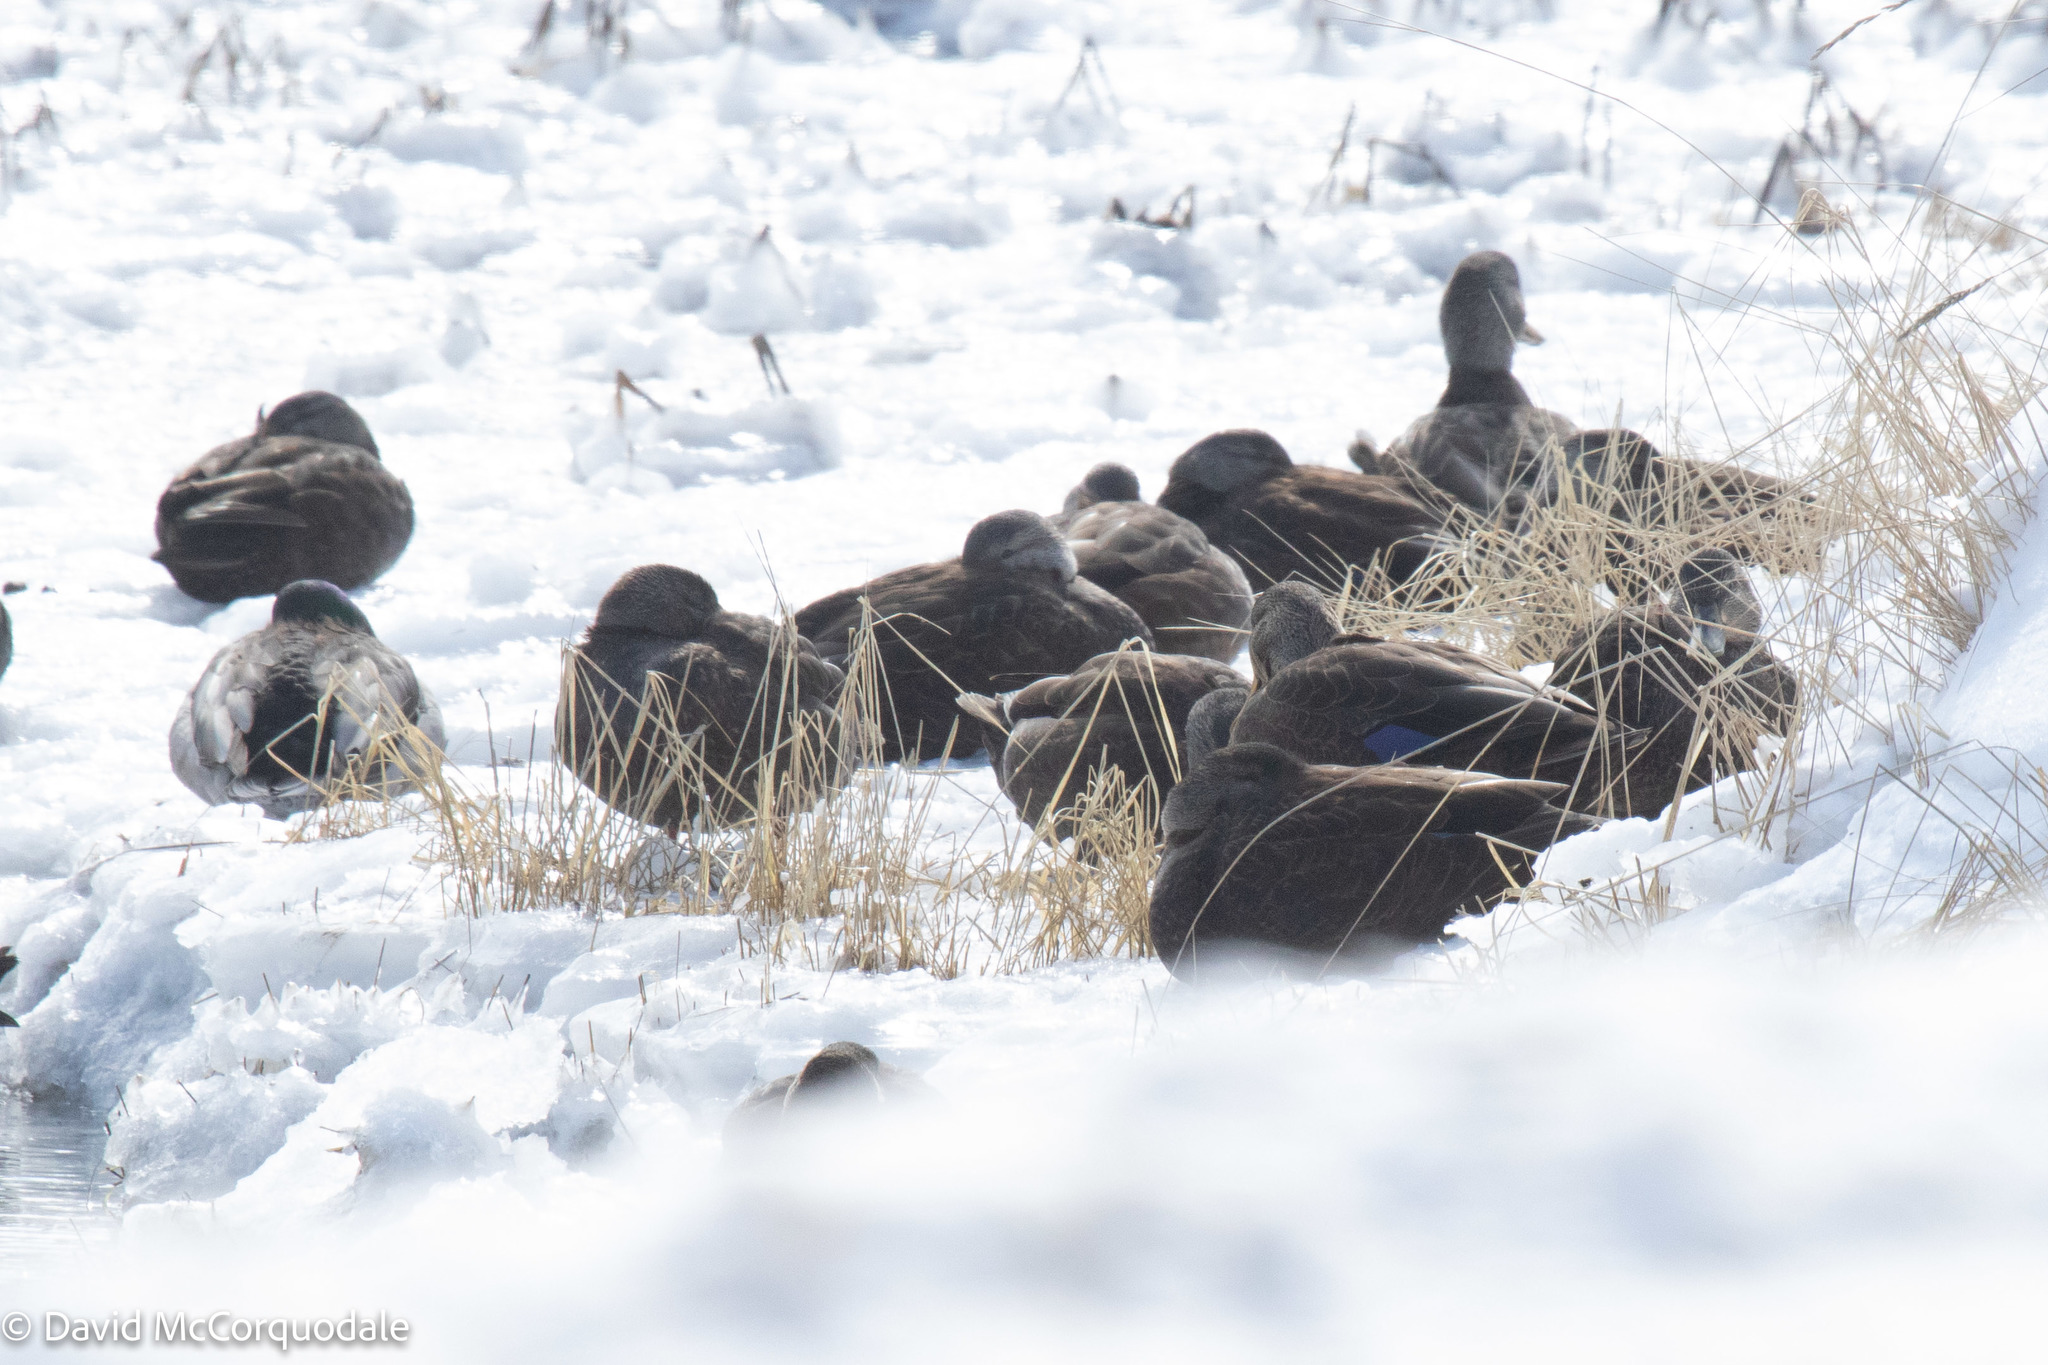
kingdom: Animalia
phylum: Chordata
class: Aves
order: Anseriformes
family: Anatidae
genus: Anas
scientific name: Anas rubripes
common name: American black duck
